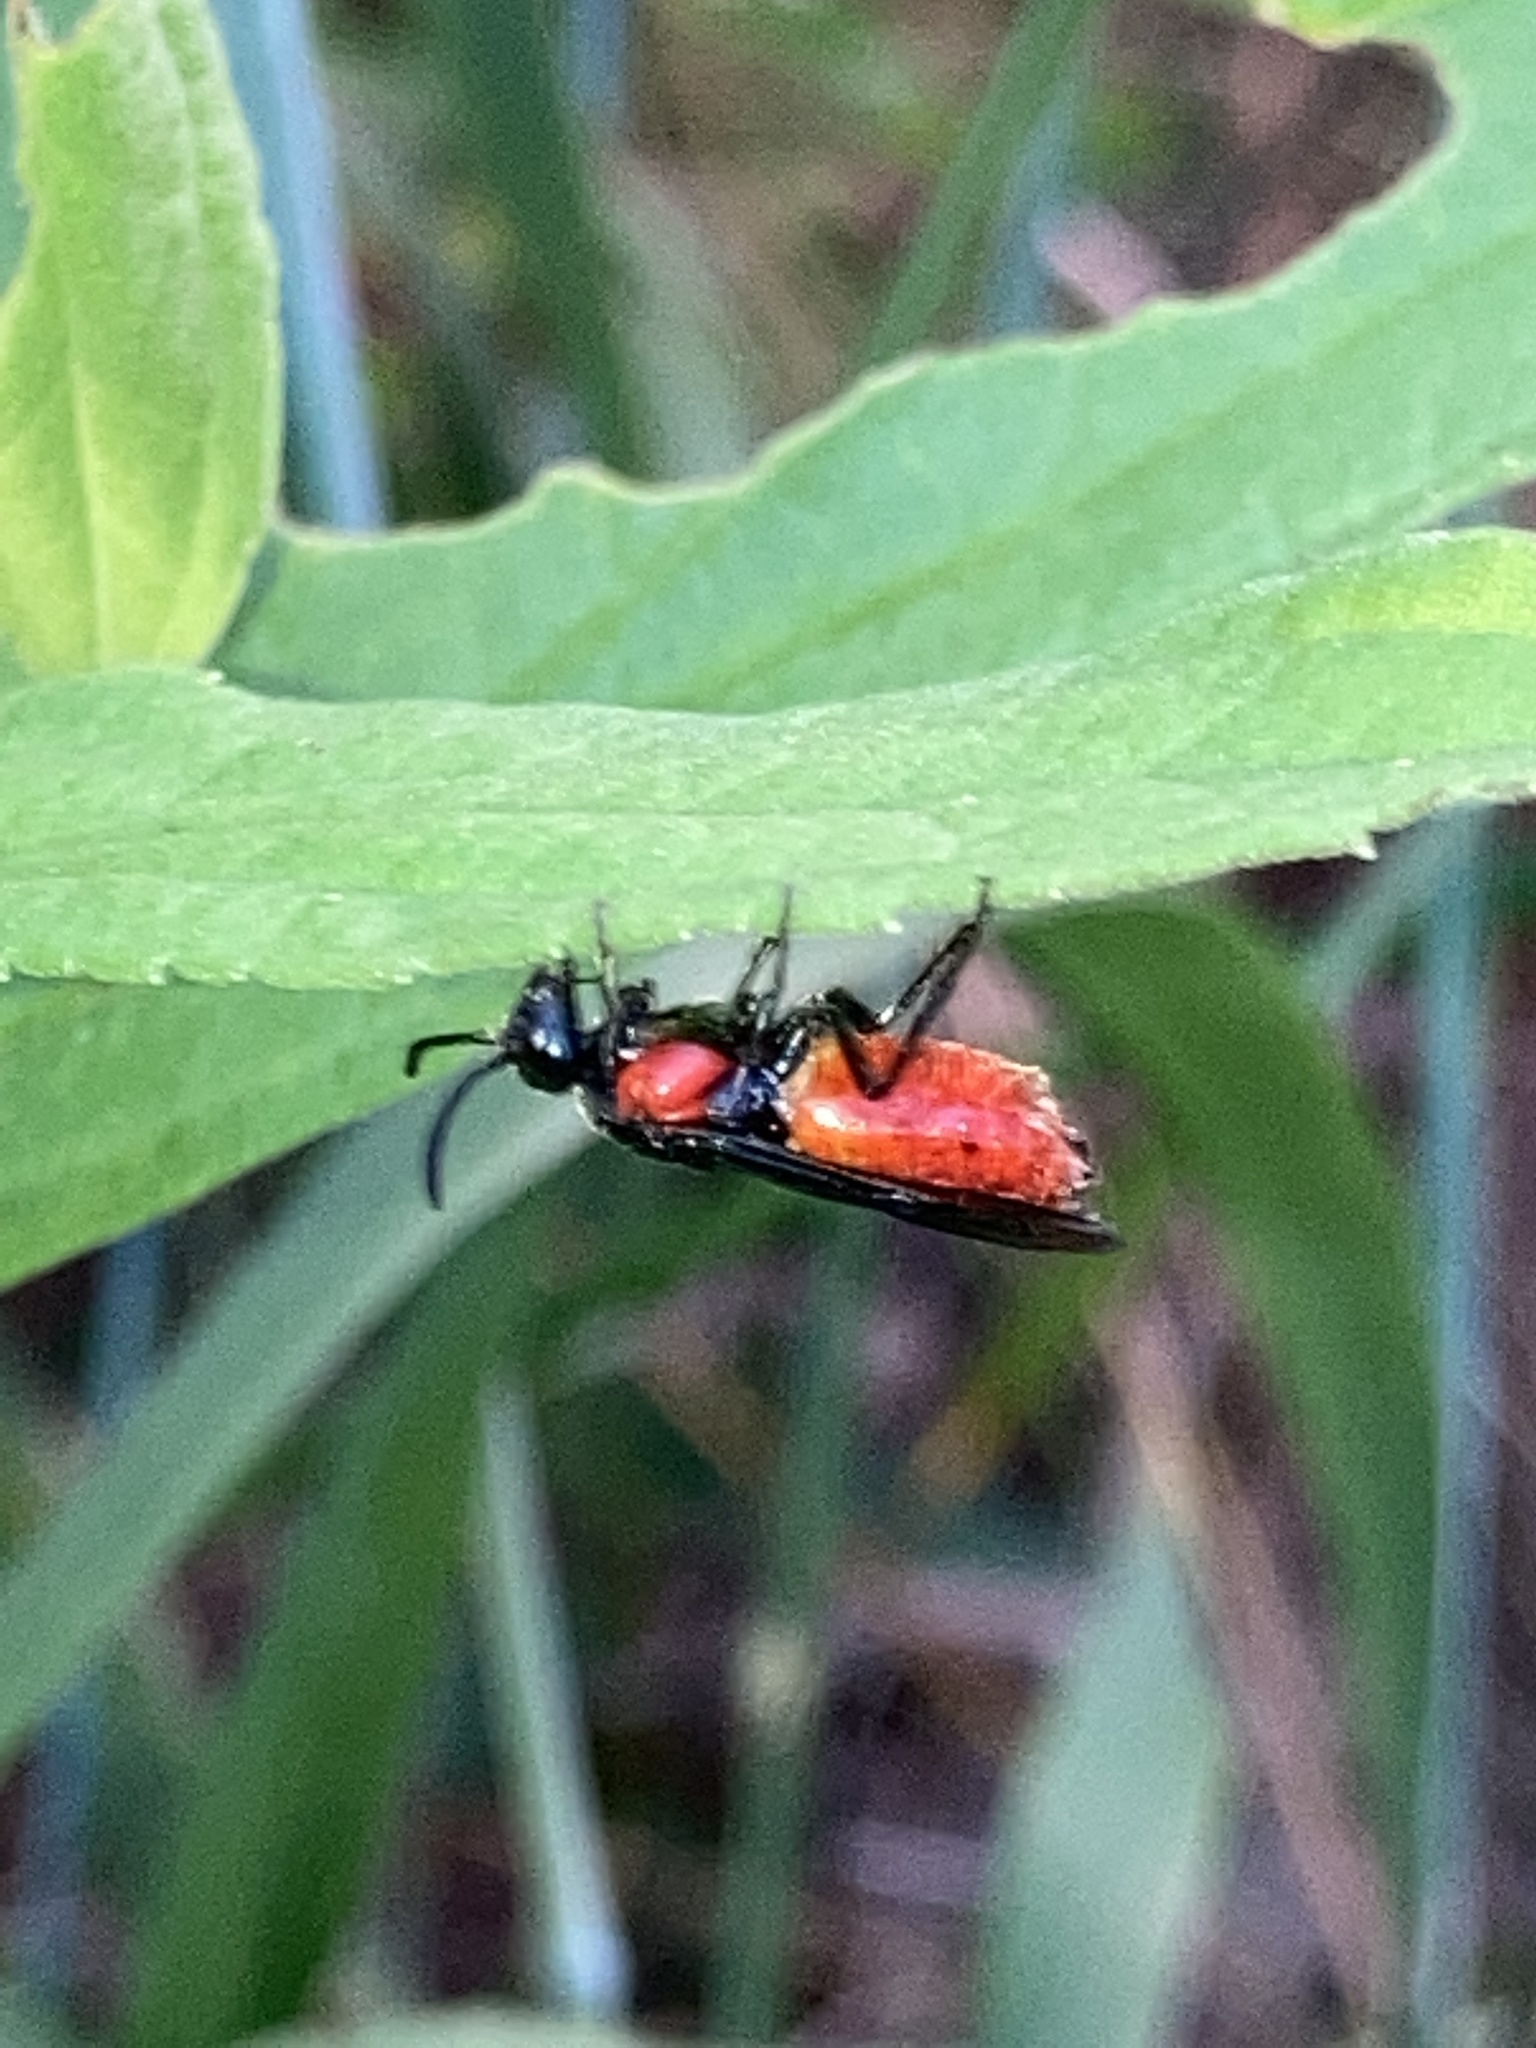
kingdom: Animalia
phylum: Arthropoda
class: Insecta
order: Hymenoptera
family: Argidae
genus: Arge
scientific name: Arge humeralis
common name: Poison ivy sawfly
